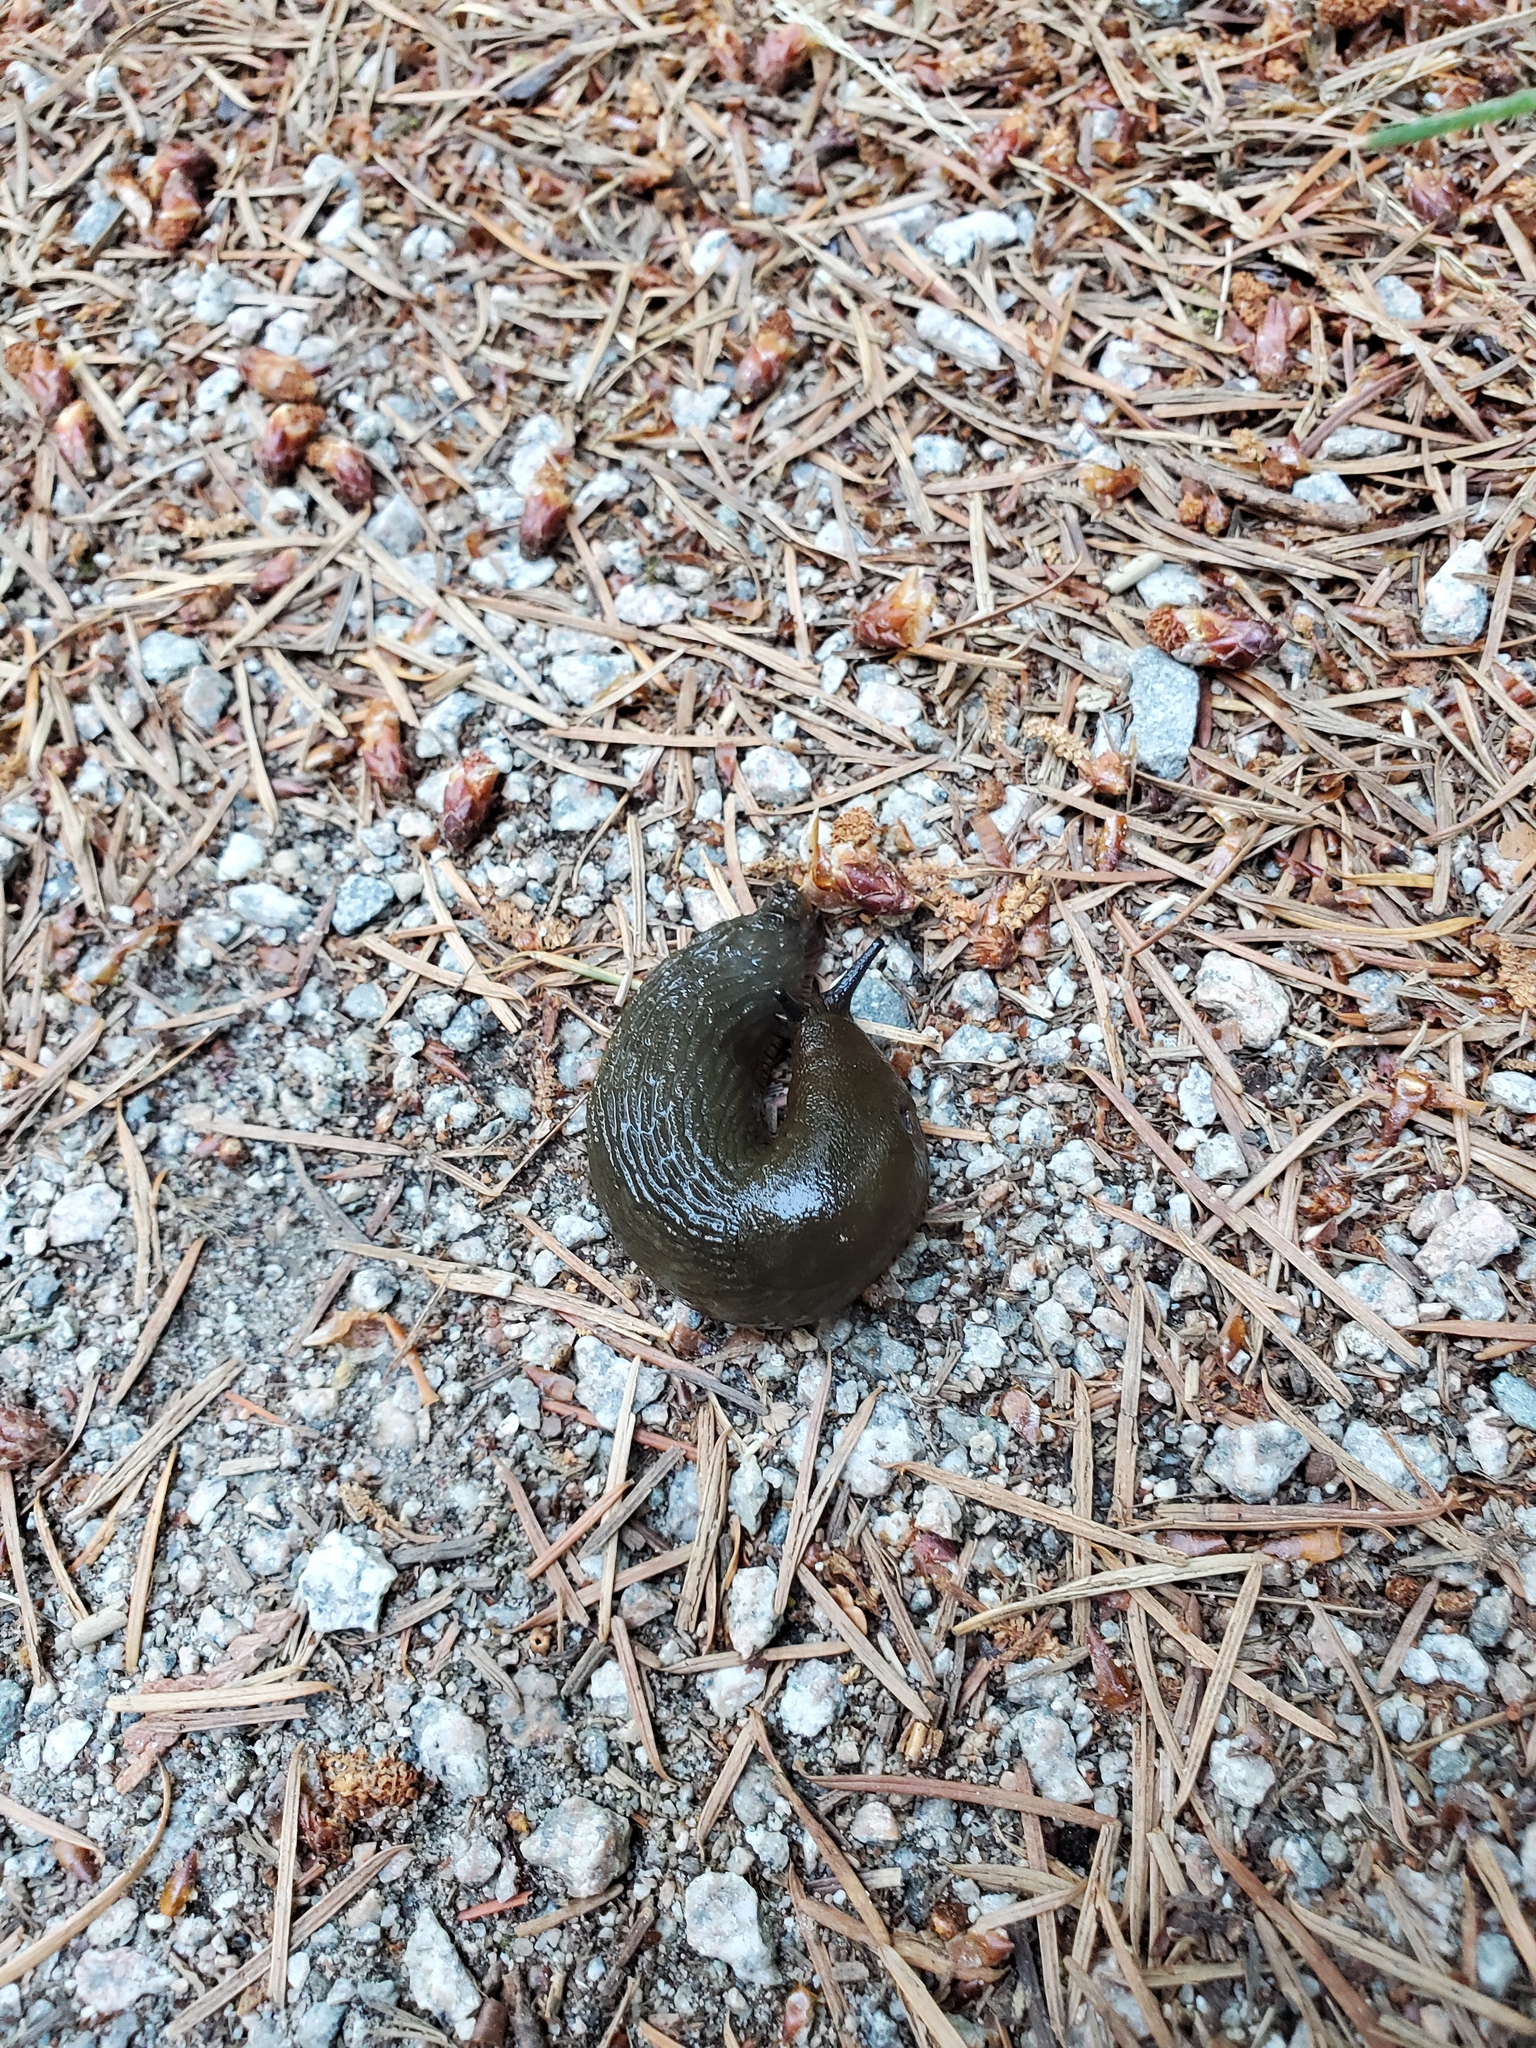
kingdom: Animalia
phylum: Mollusca
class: Gastropoda
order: Stylommatophora
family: Arionidae
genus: Arion
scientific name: Arion
